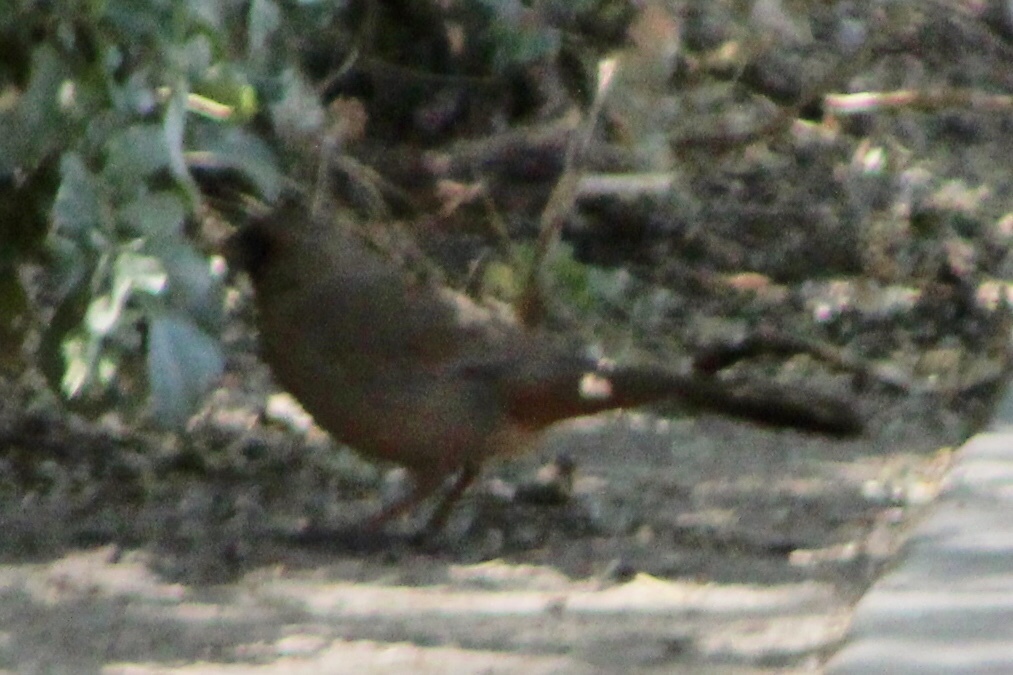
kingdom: Animalia
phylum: Chordata
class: Aves
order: Passeriformes
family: Passerellidae
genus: Melozone
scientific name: Melozone aberti
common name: Abert's towhee
